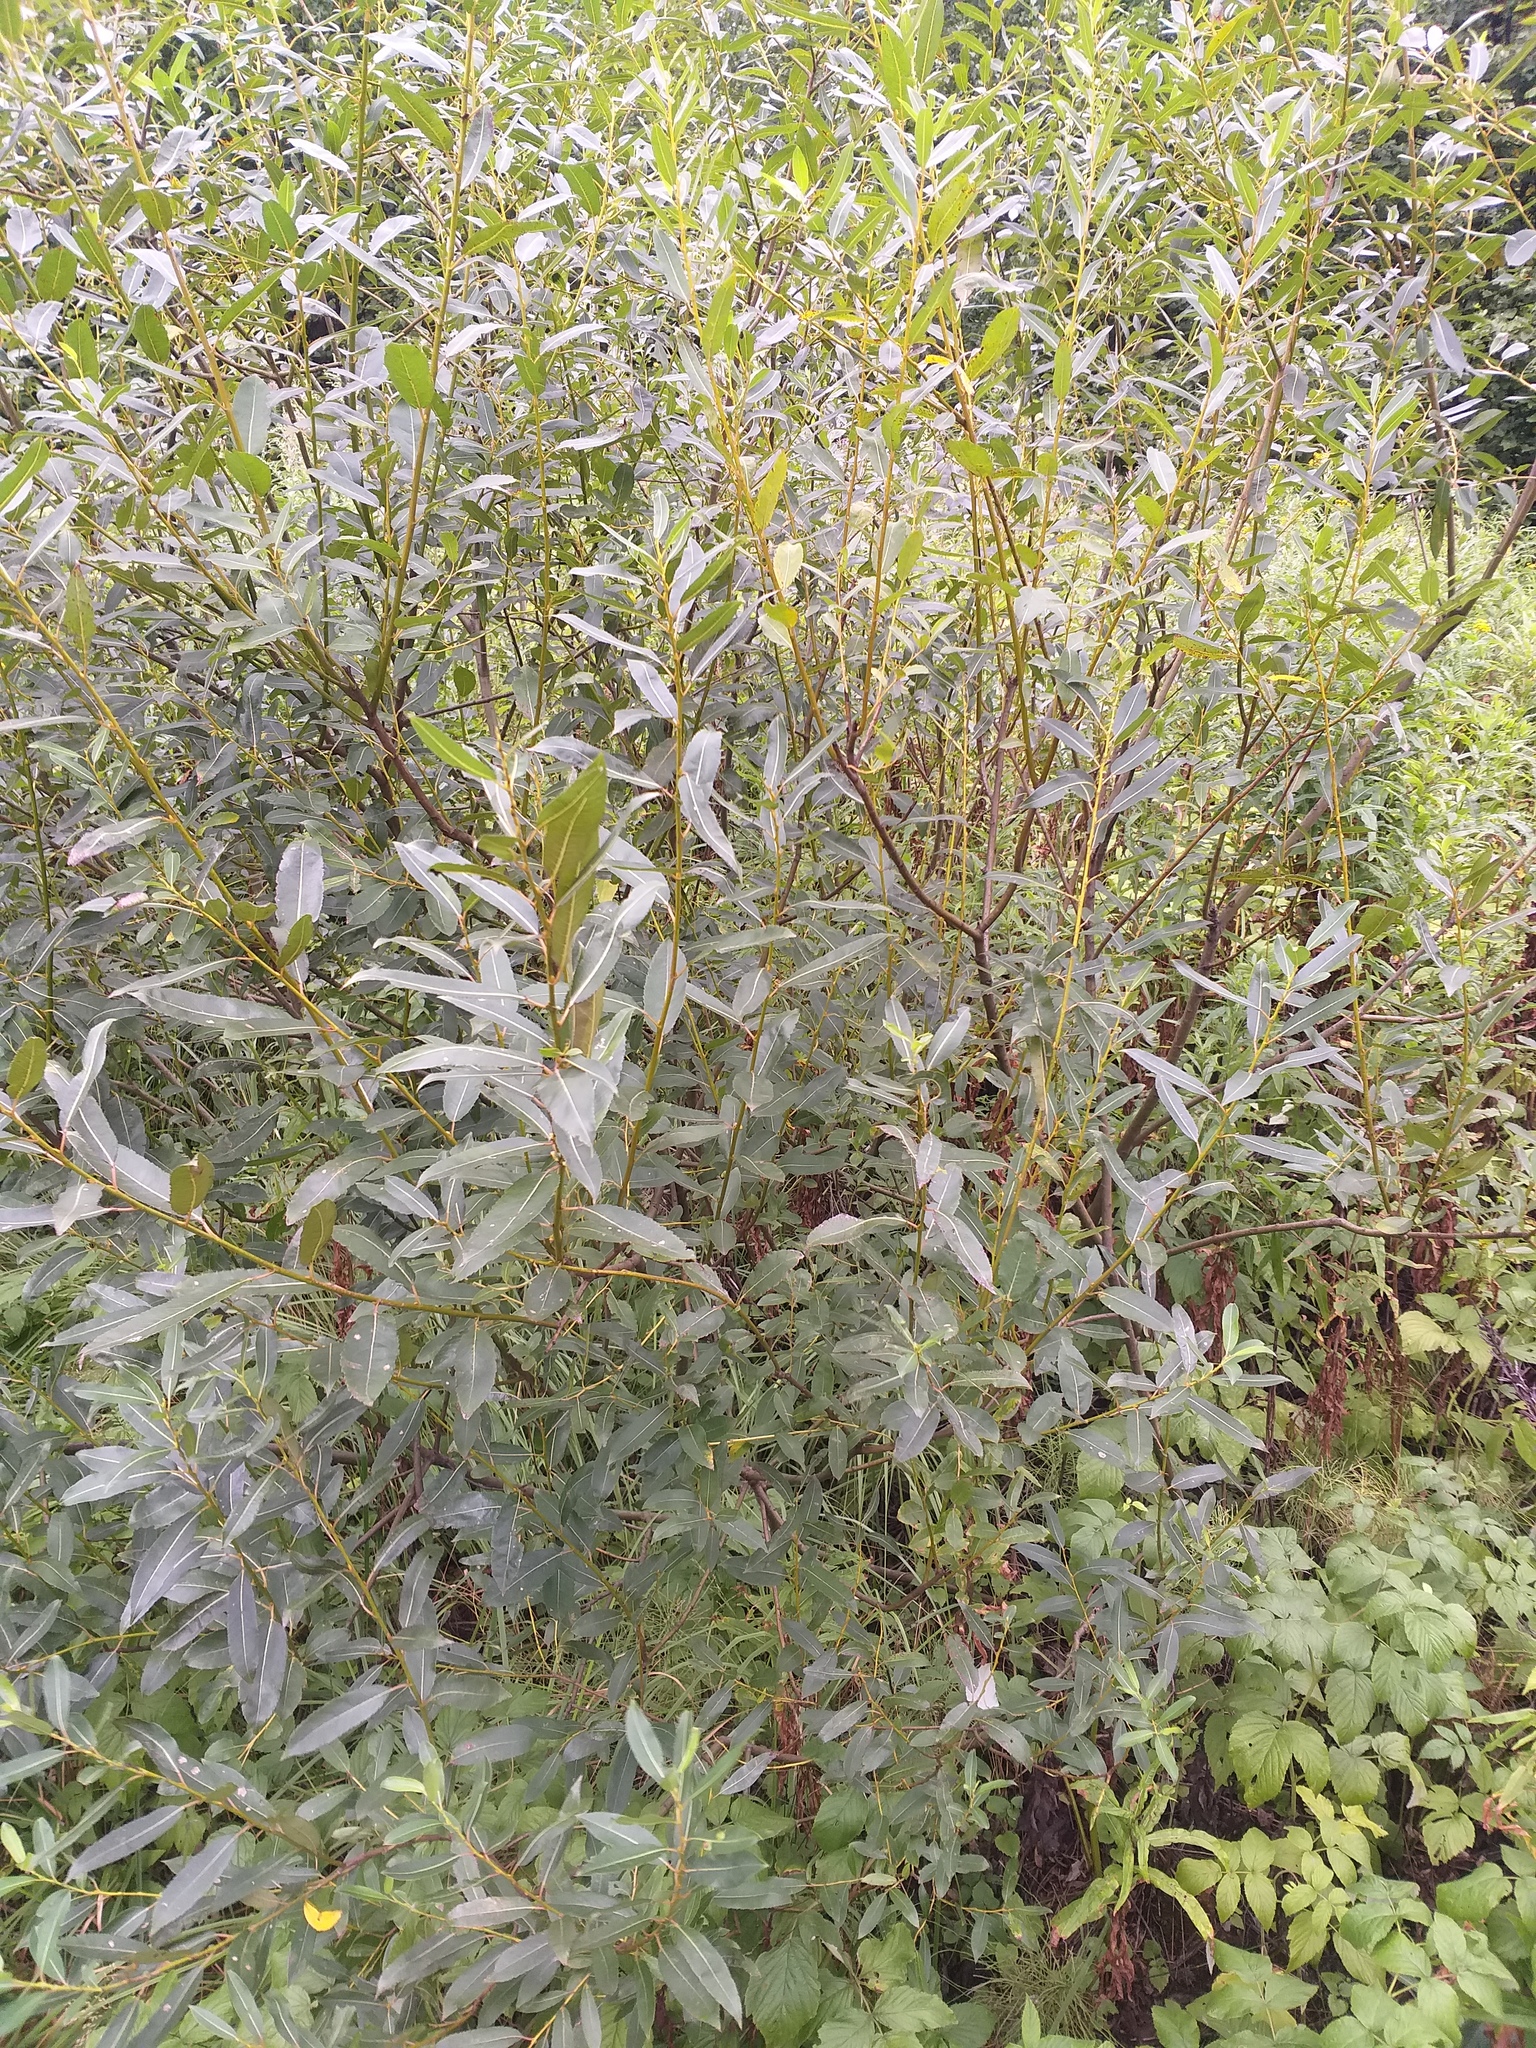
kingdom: Plantae
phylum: Tracheophyta
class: Magnoliopsida
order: Malpighiales
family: Salicaceae
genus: Salix
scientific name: Salix triandra
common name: Almond willow
